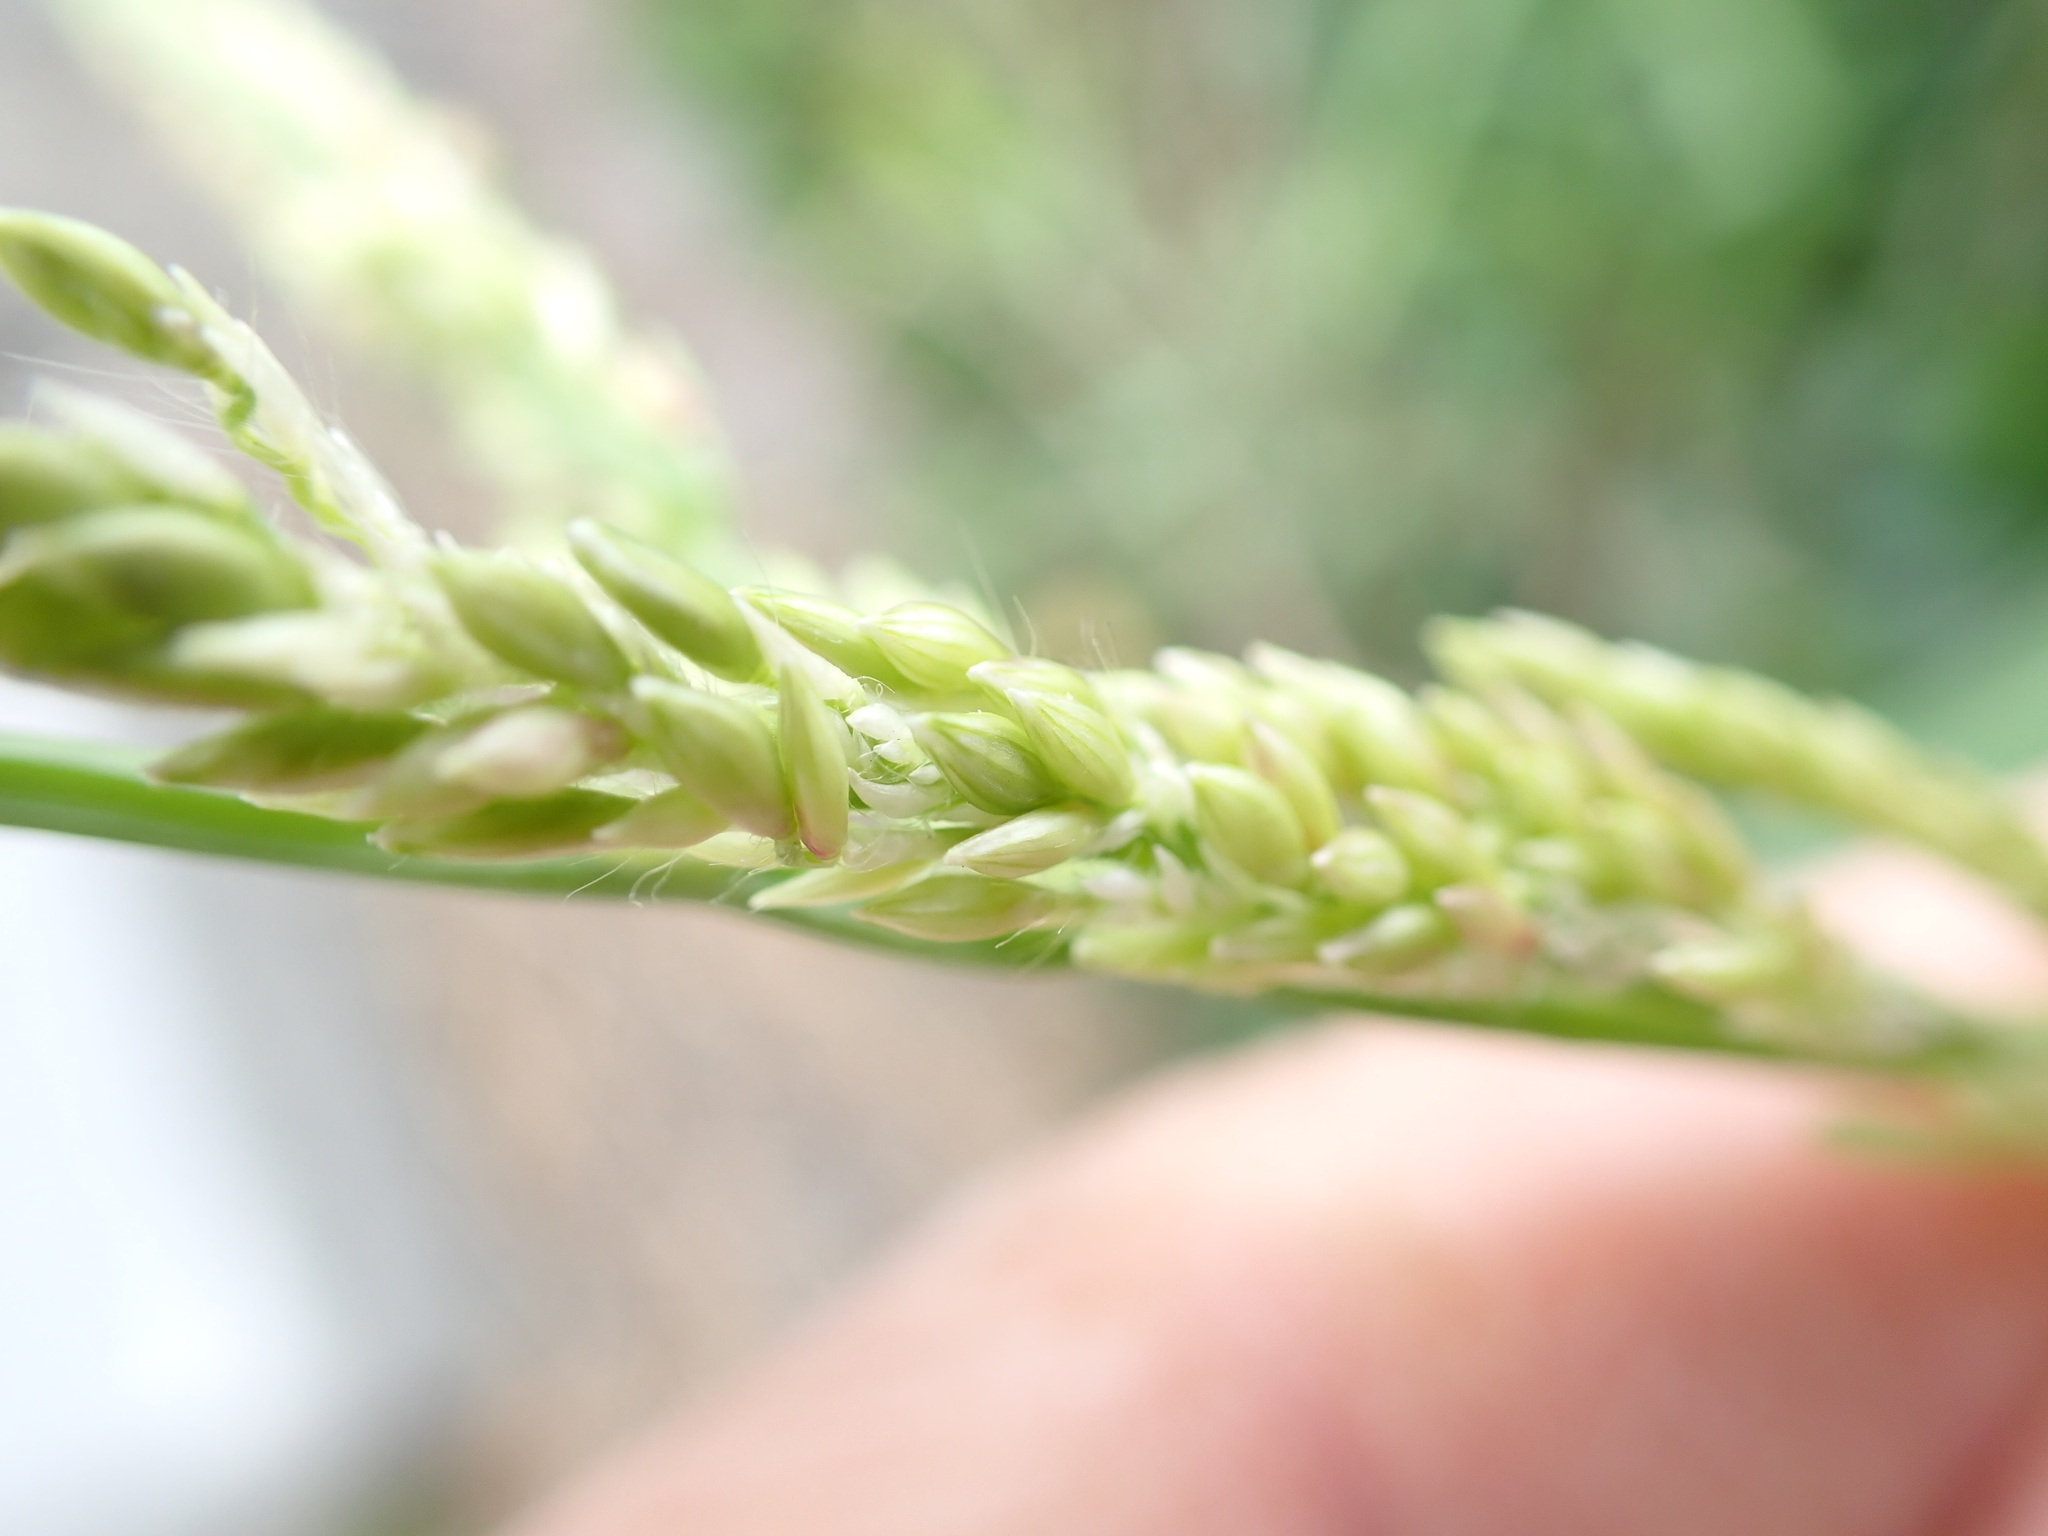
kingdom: Plantae
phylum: Tracheophyta
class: Liliopsida
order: Poales
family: Poaceae
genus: Urochloa
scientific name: Urochloa mutica
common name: Para grass
